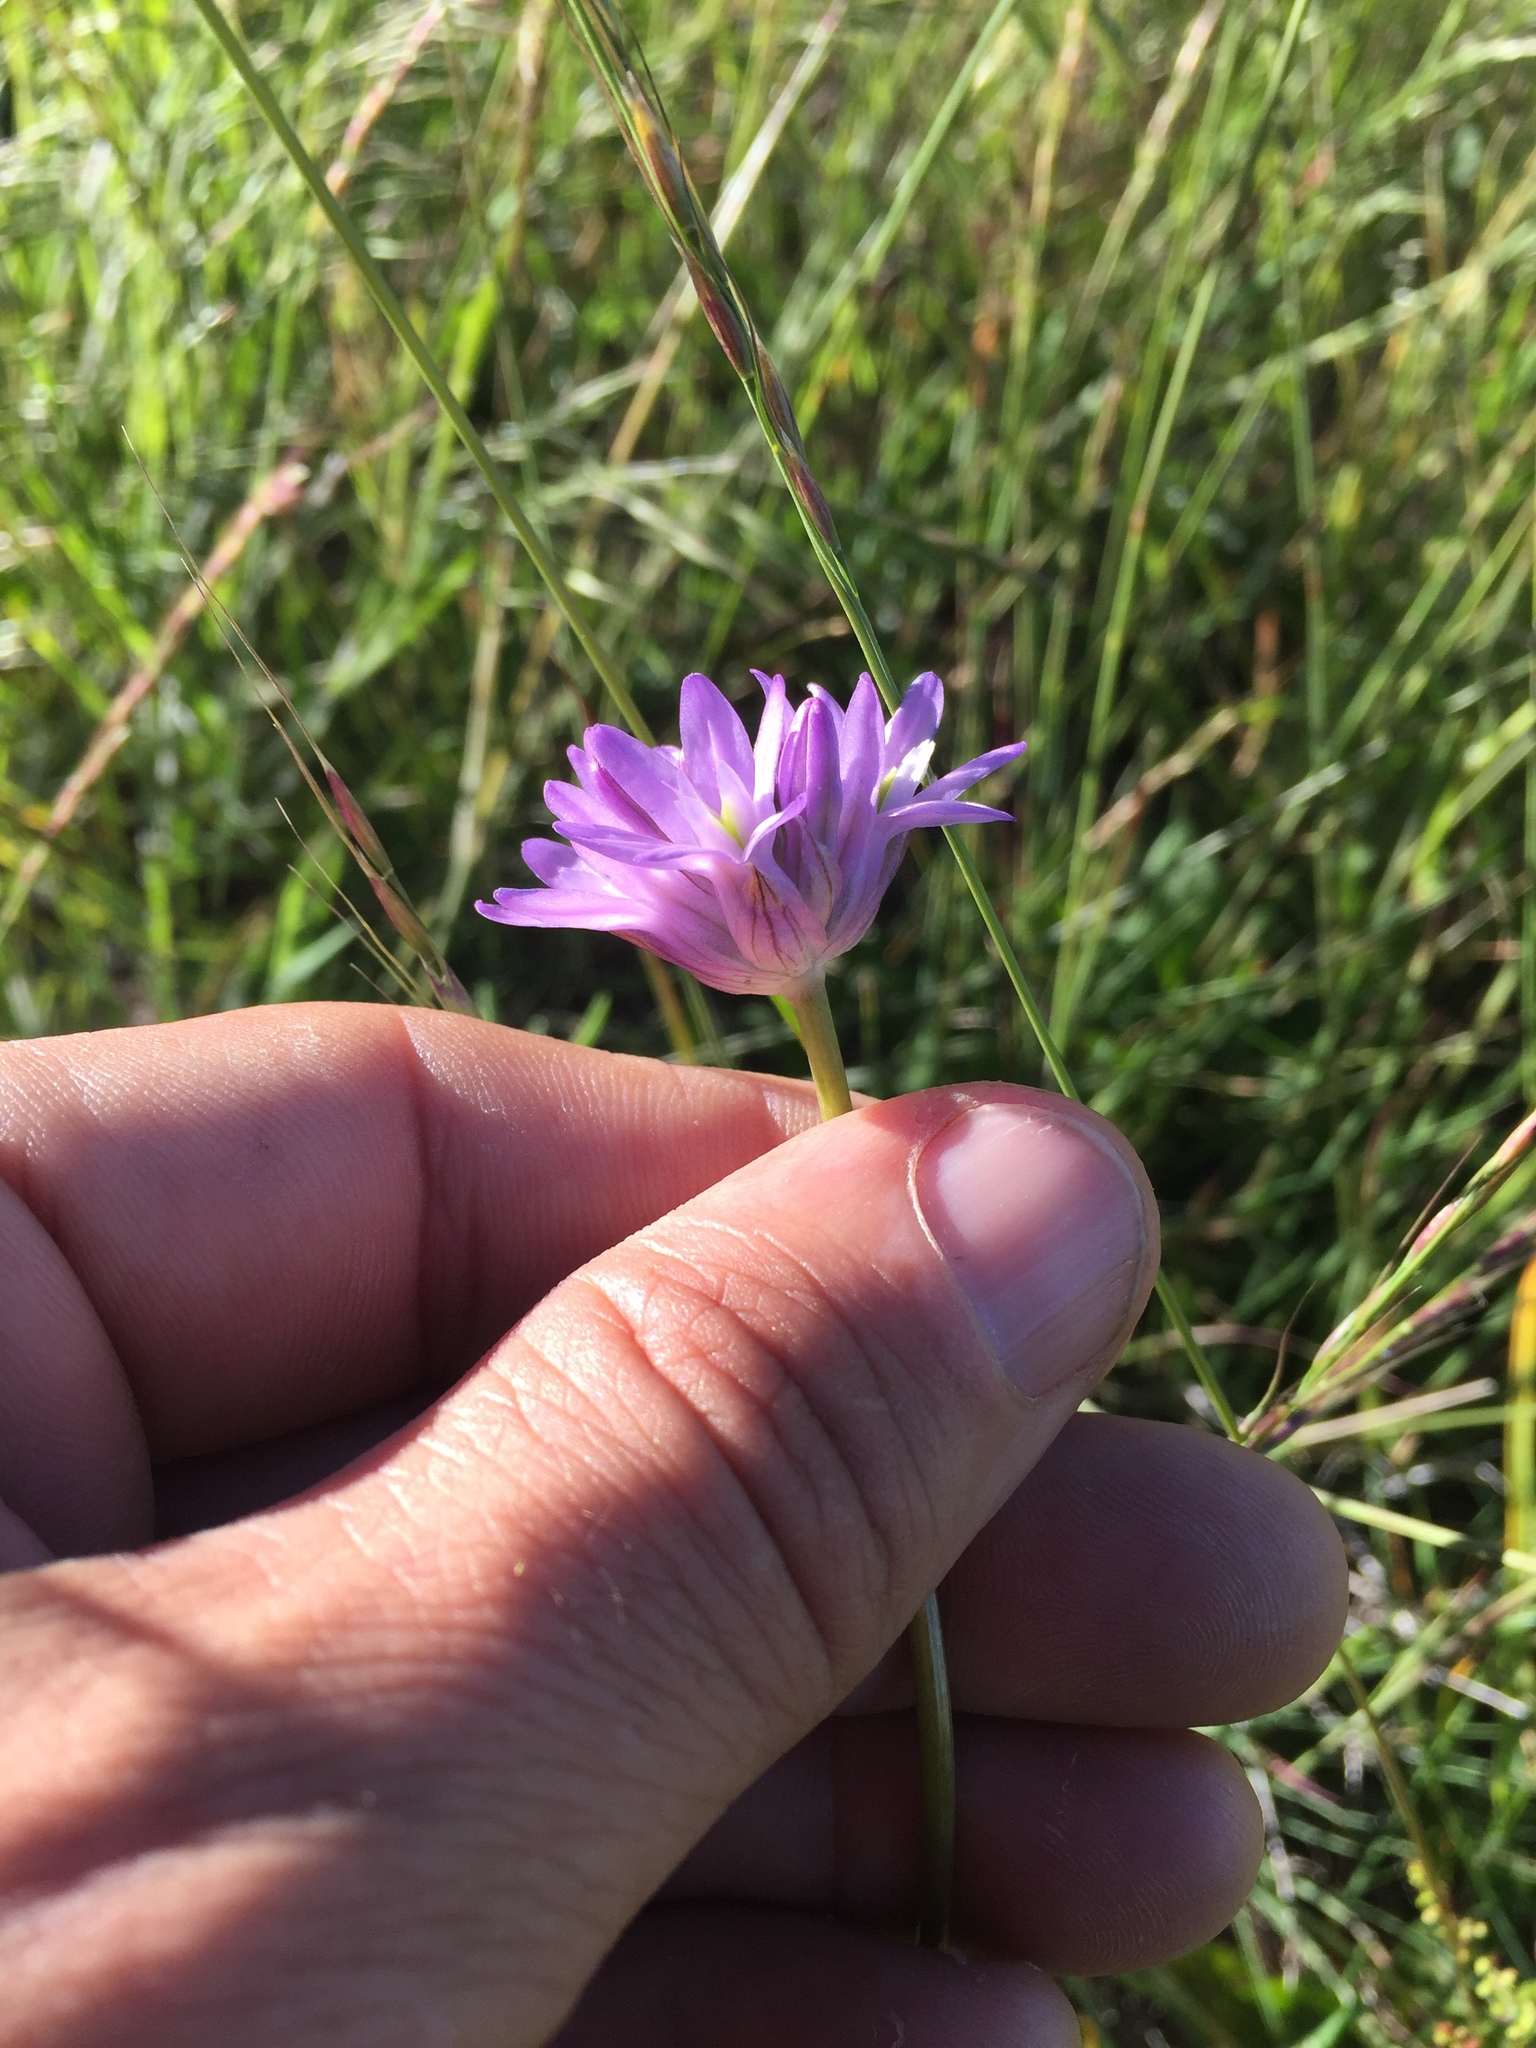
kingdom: Plantae
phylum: Tracheophyta
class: Liliopsida
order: Asparagales
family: Asparagaceae
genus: Dichelostemma
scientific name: Dichelostemma congestum
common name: Fork-tooth ookow
